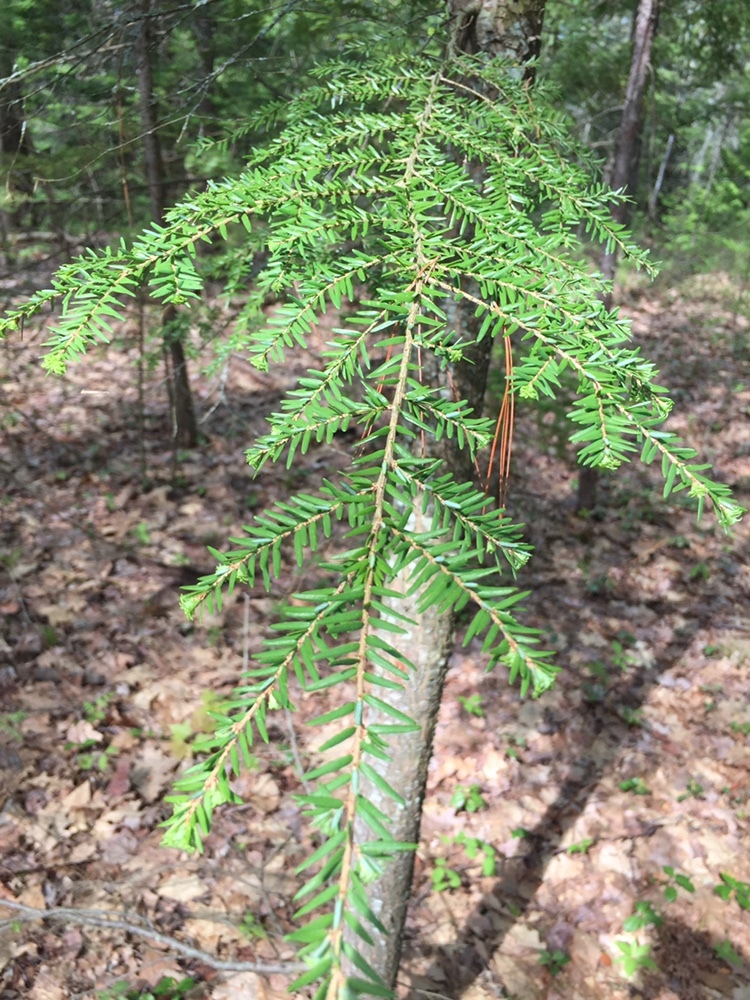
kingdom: Plantae
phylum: Tracheophyta
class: Pinopsida
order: Pinales
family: Pinaceae
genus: Tsuga
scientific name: Tsuga canadensis
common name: Eastern hemlock
